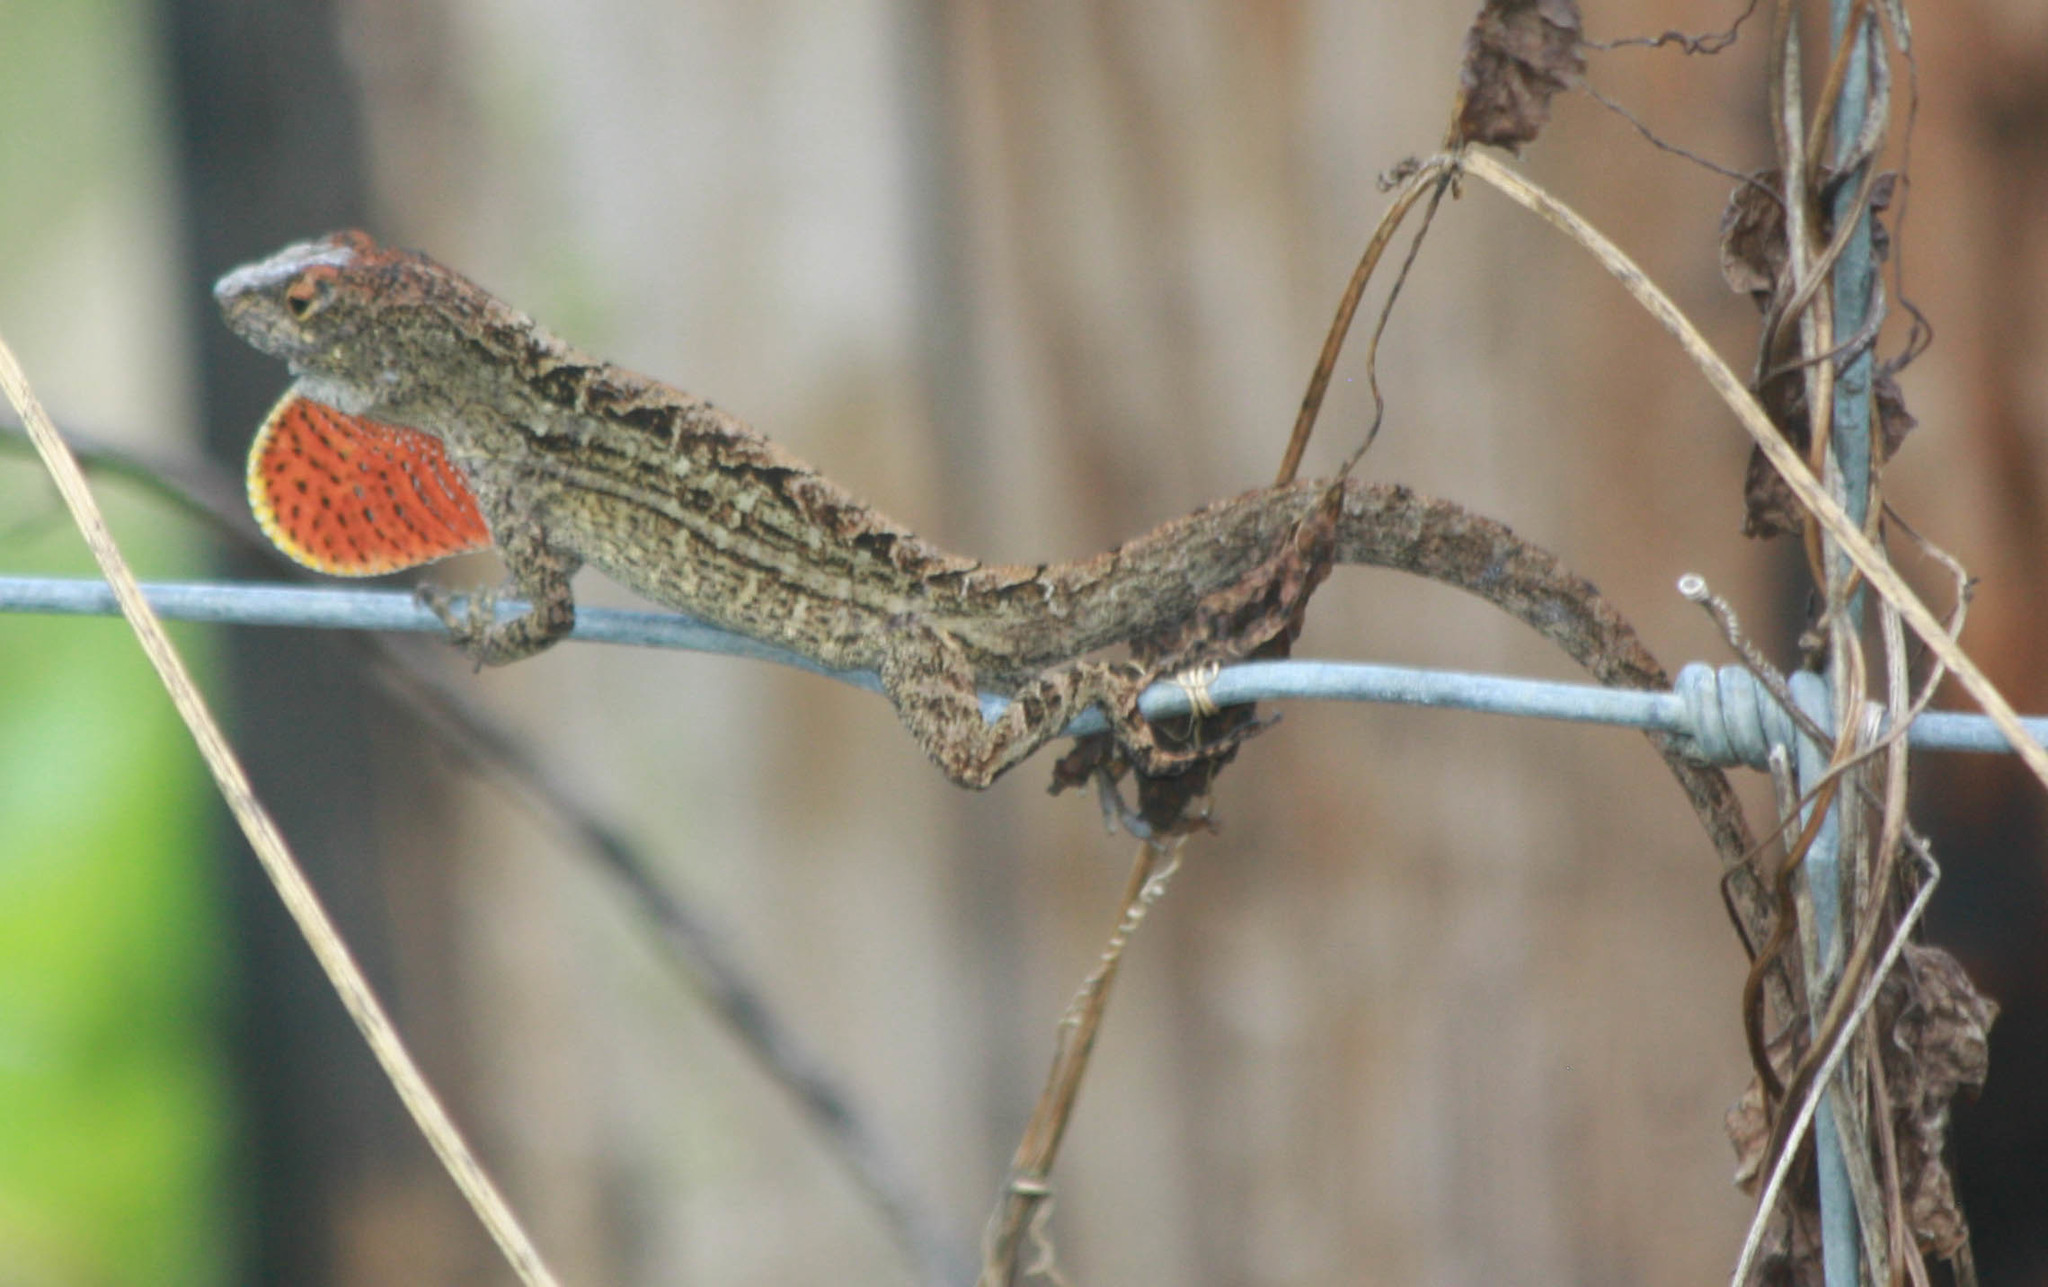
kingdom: Animalia
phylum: Chordata
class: Squamata
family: Dactyloidae
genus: Anolis
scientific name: Anolis sagrei
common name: Brown anole
